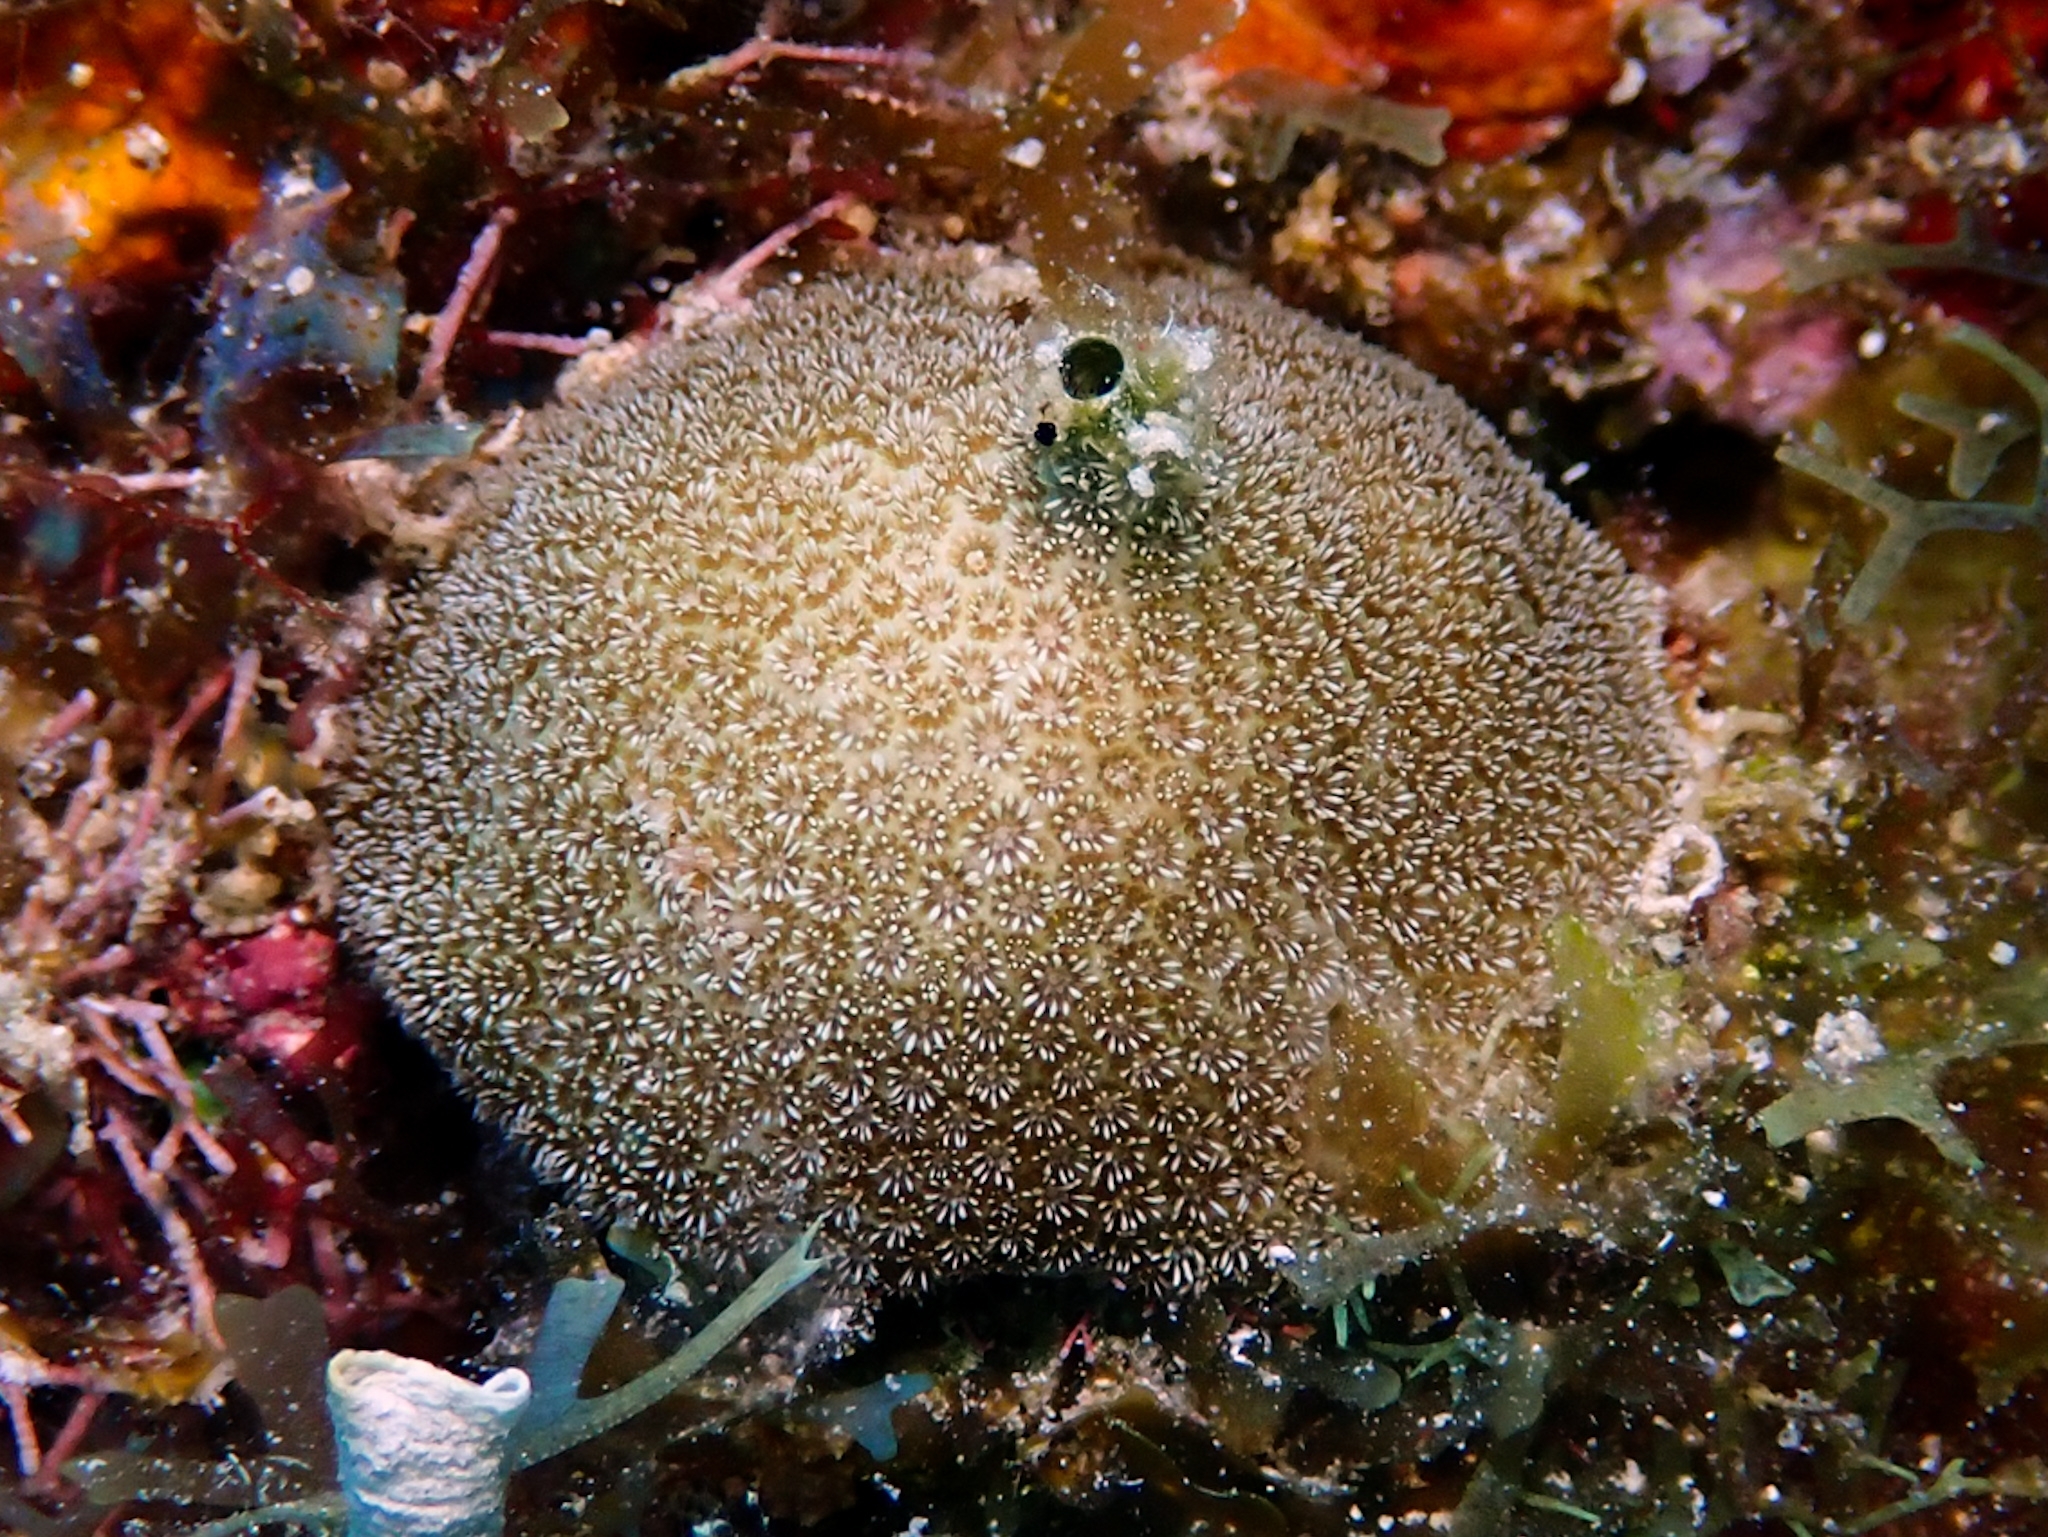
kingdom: Animalia
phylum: Cnidaria
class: Anthozoa
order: Scleractinia
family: Poritidae
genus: Porites
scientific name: Porites astreoides
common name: Mustard hill coral
